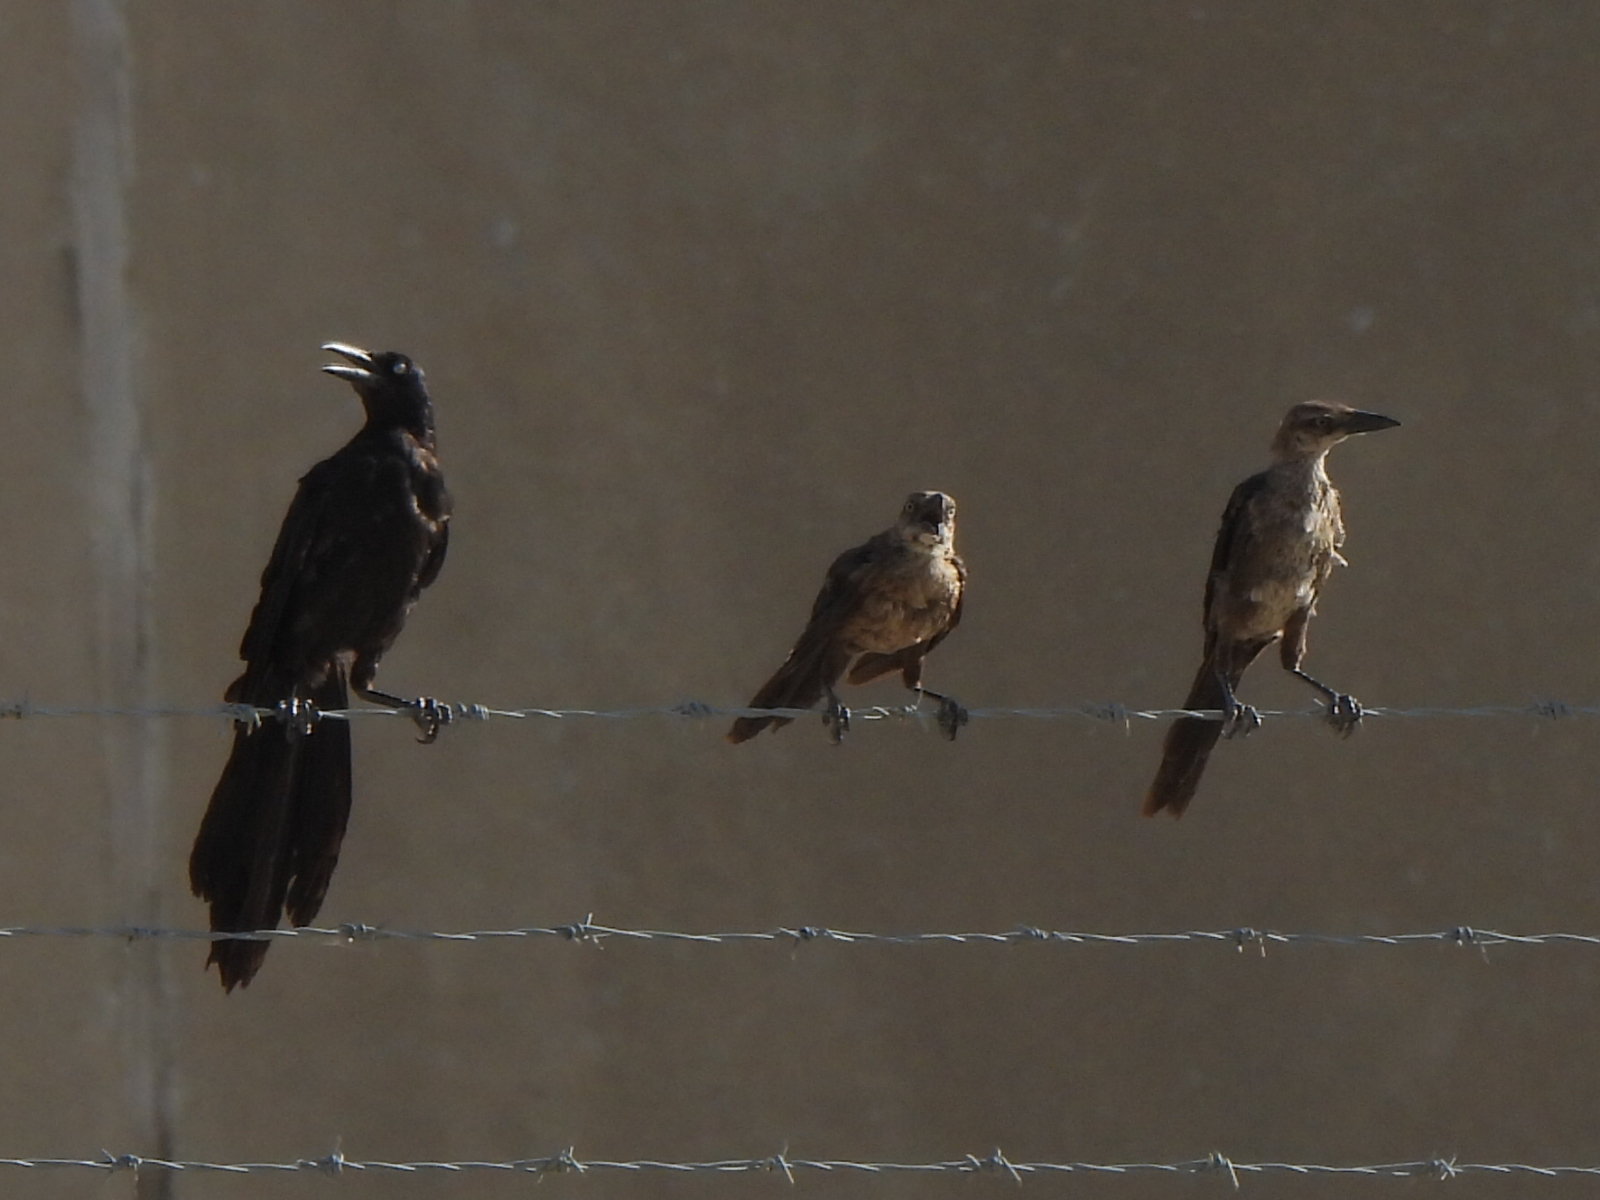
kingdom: Animalia
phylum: Chordata
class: Aves
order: Passeriformes
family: Icteridae
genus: Quiscalus
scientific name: Quiscalus mexicanus
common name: Great-tailed grackle
